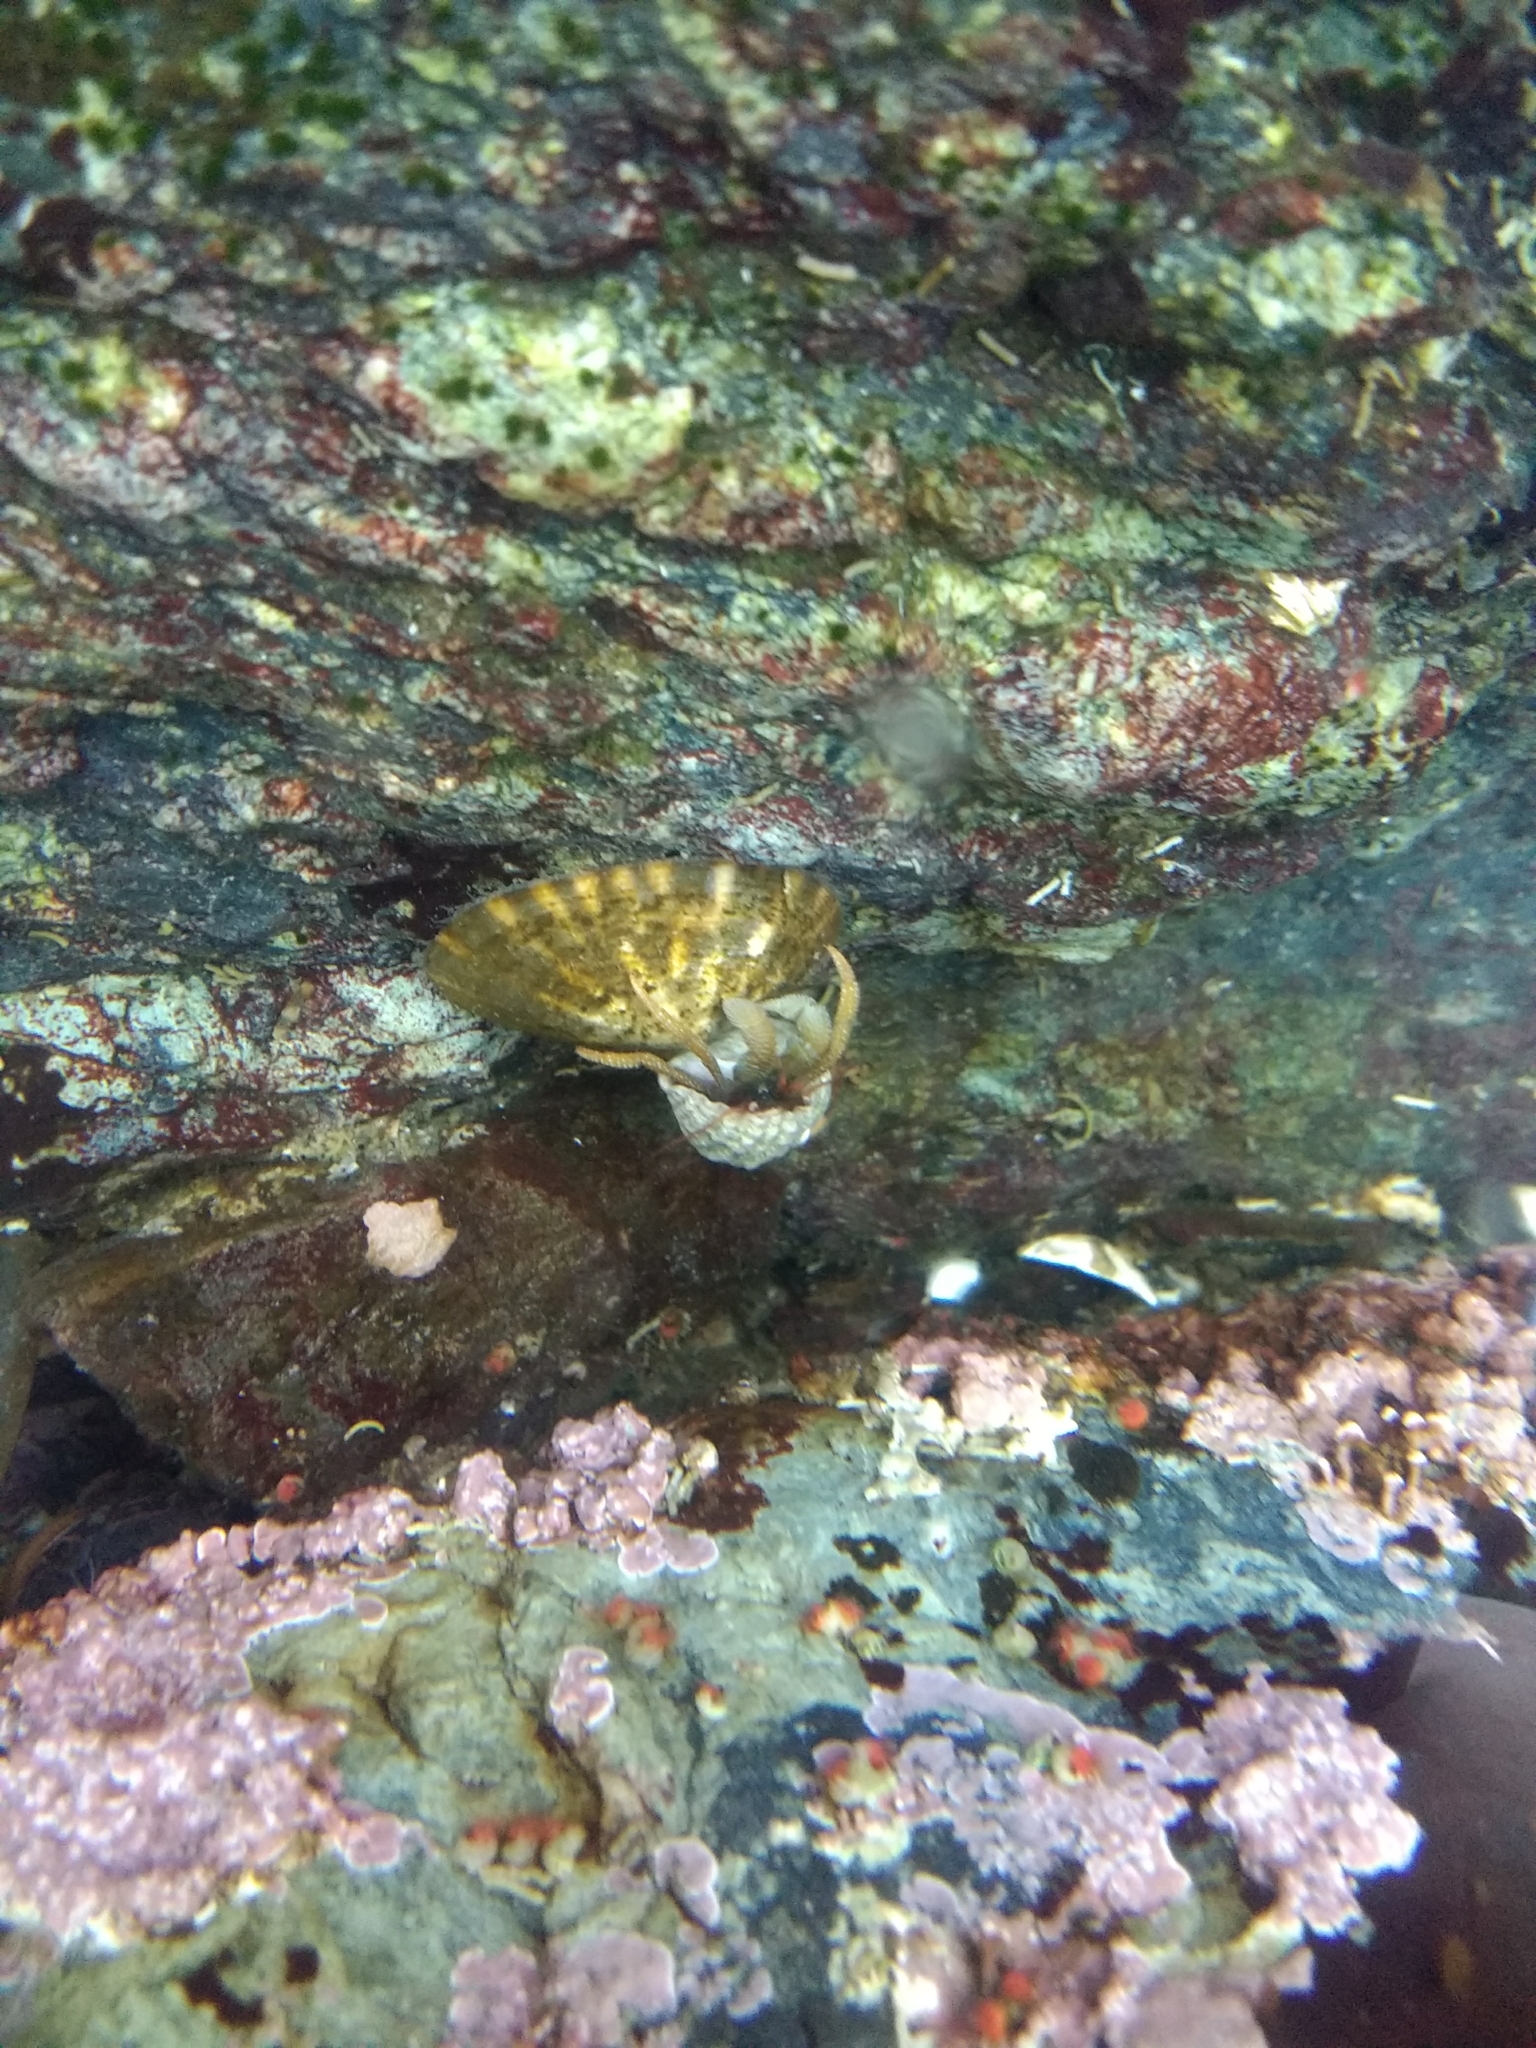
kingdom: Animalia
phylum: Arthropoda
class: Malacostraca
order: Decapoda
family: Paguridae
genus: Pagurus
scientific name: Pagurus granosimanus
